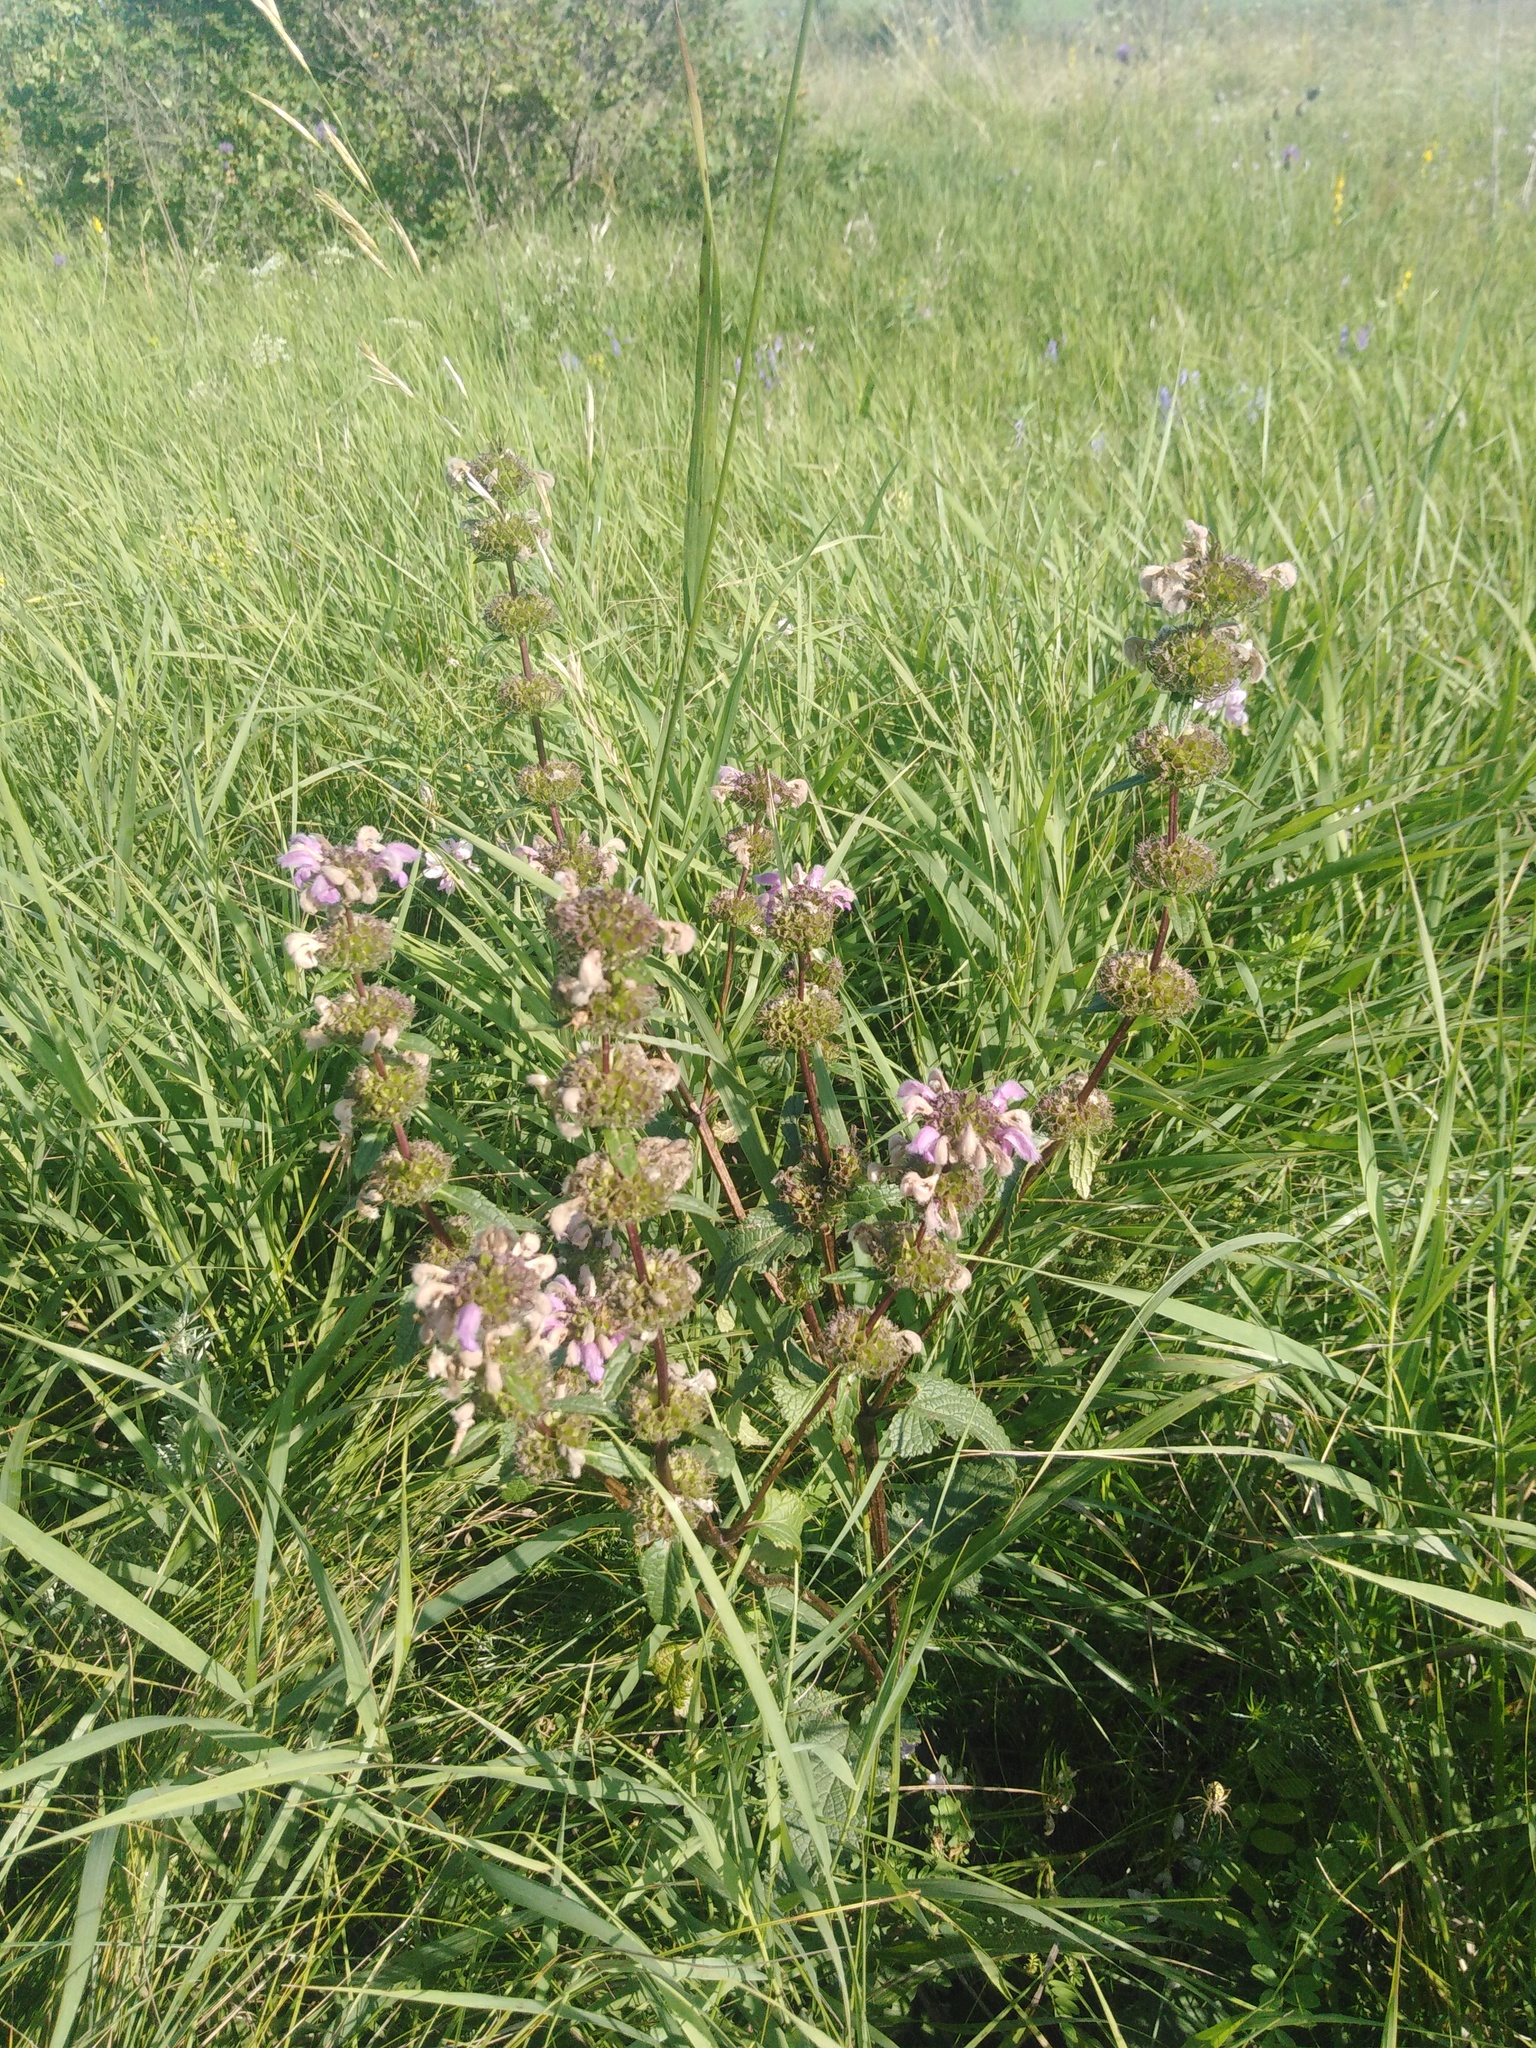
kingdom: Plantae
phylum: Tracheophyta
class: Magnoliopsida
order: Lamiales
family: Lamiaceae
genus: Phlomoides
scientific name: Phlomoides tuberosa
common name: Tuberous jerusalem sage
